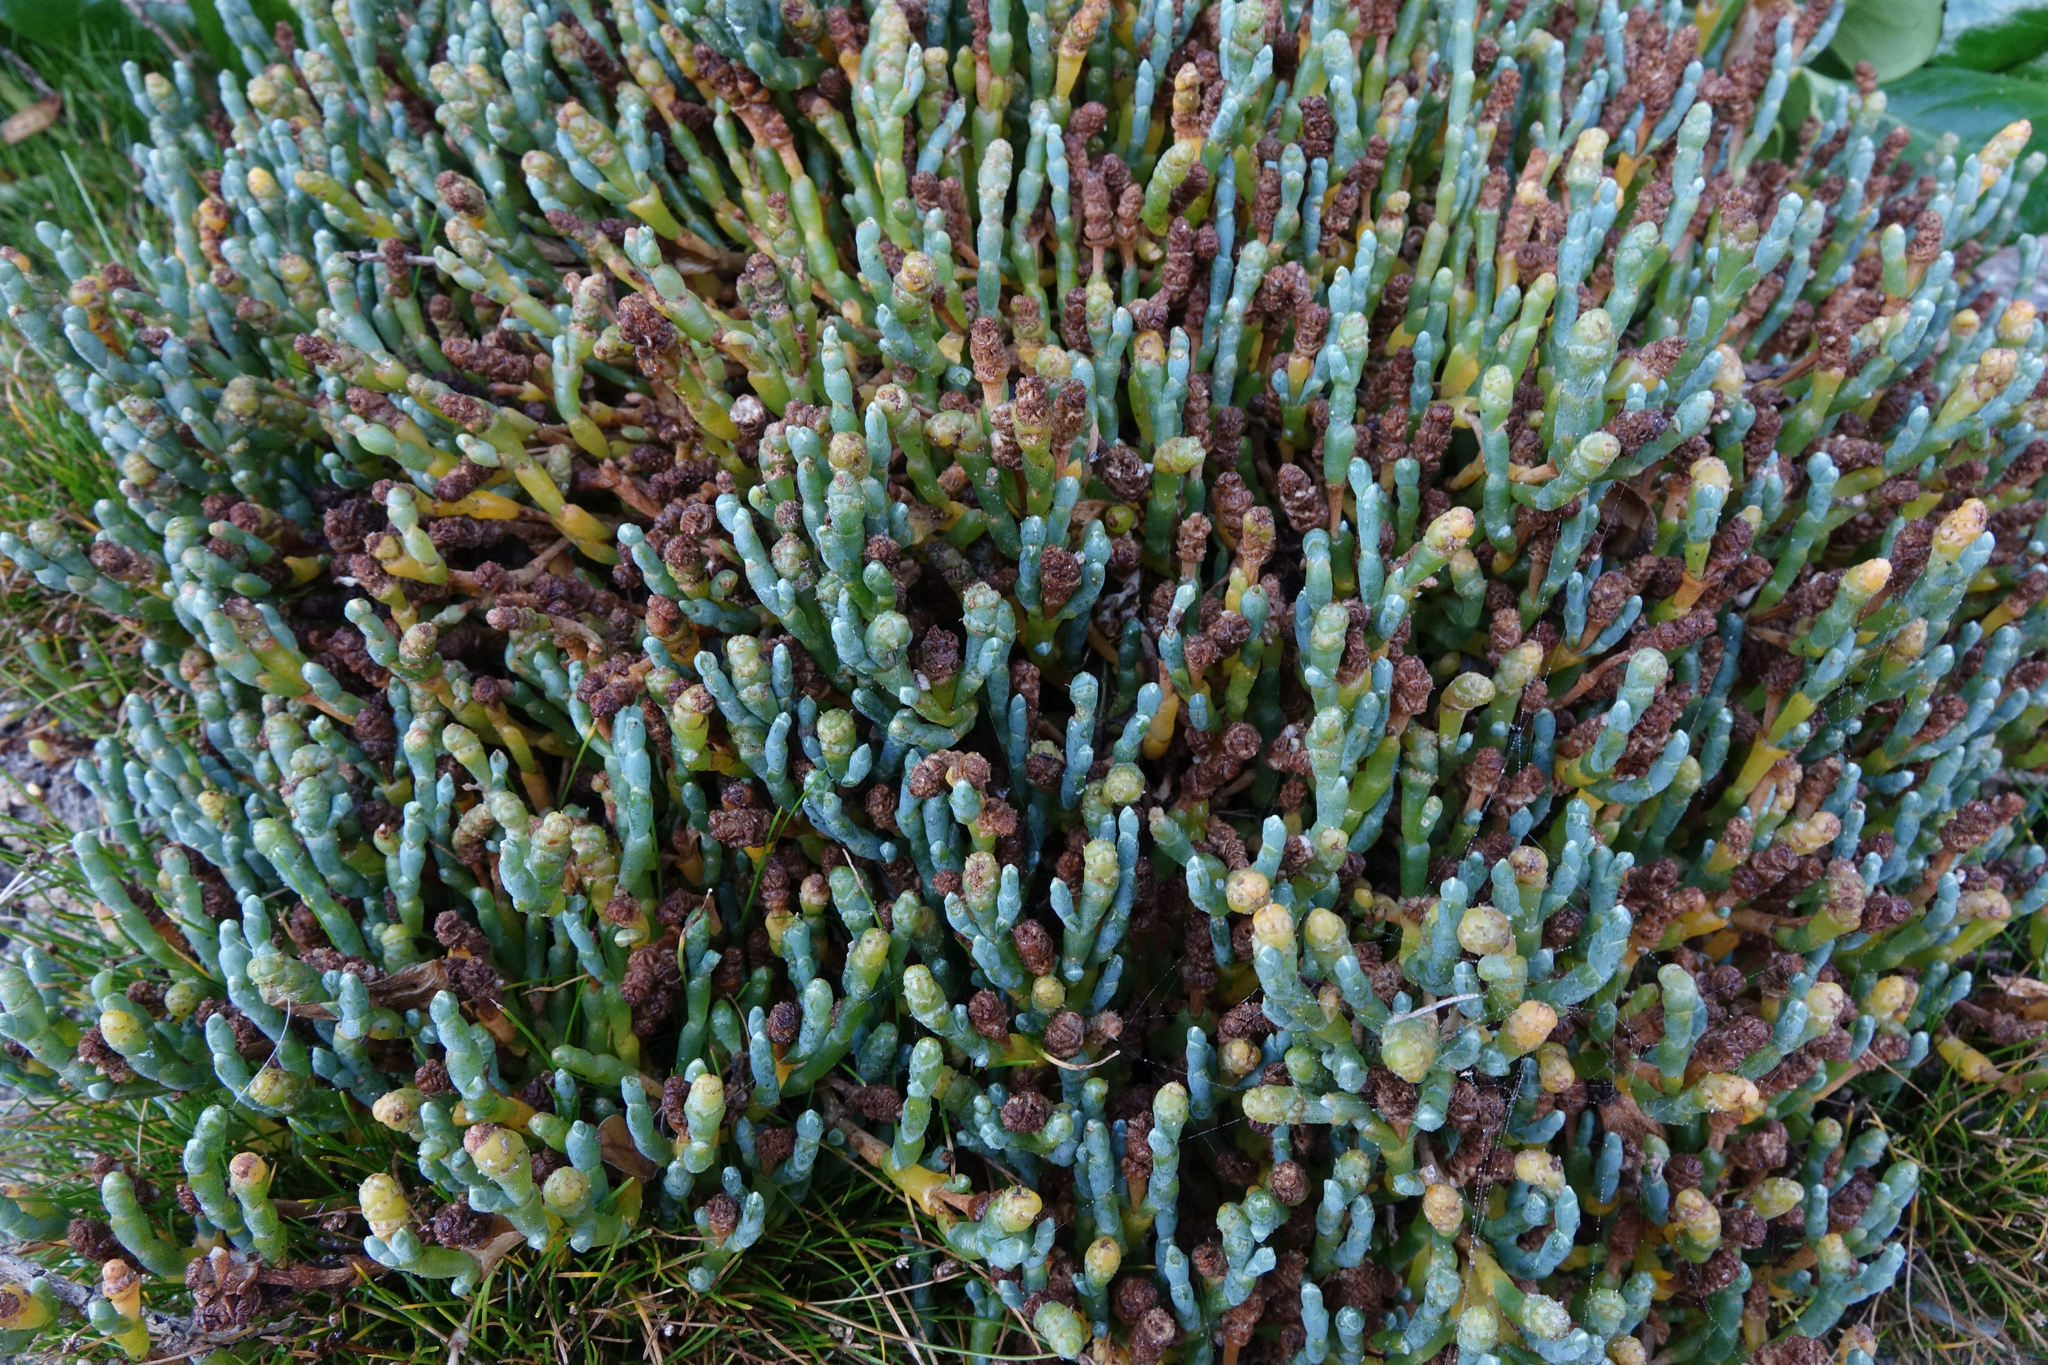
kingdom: Plantae
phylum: Tracheophyta
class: Magnoliopsida
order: Caryophyllales
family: Amaranthaceae
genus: Salicornia
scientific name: Salicornia quinqueflora
